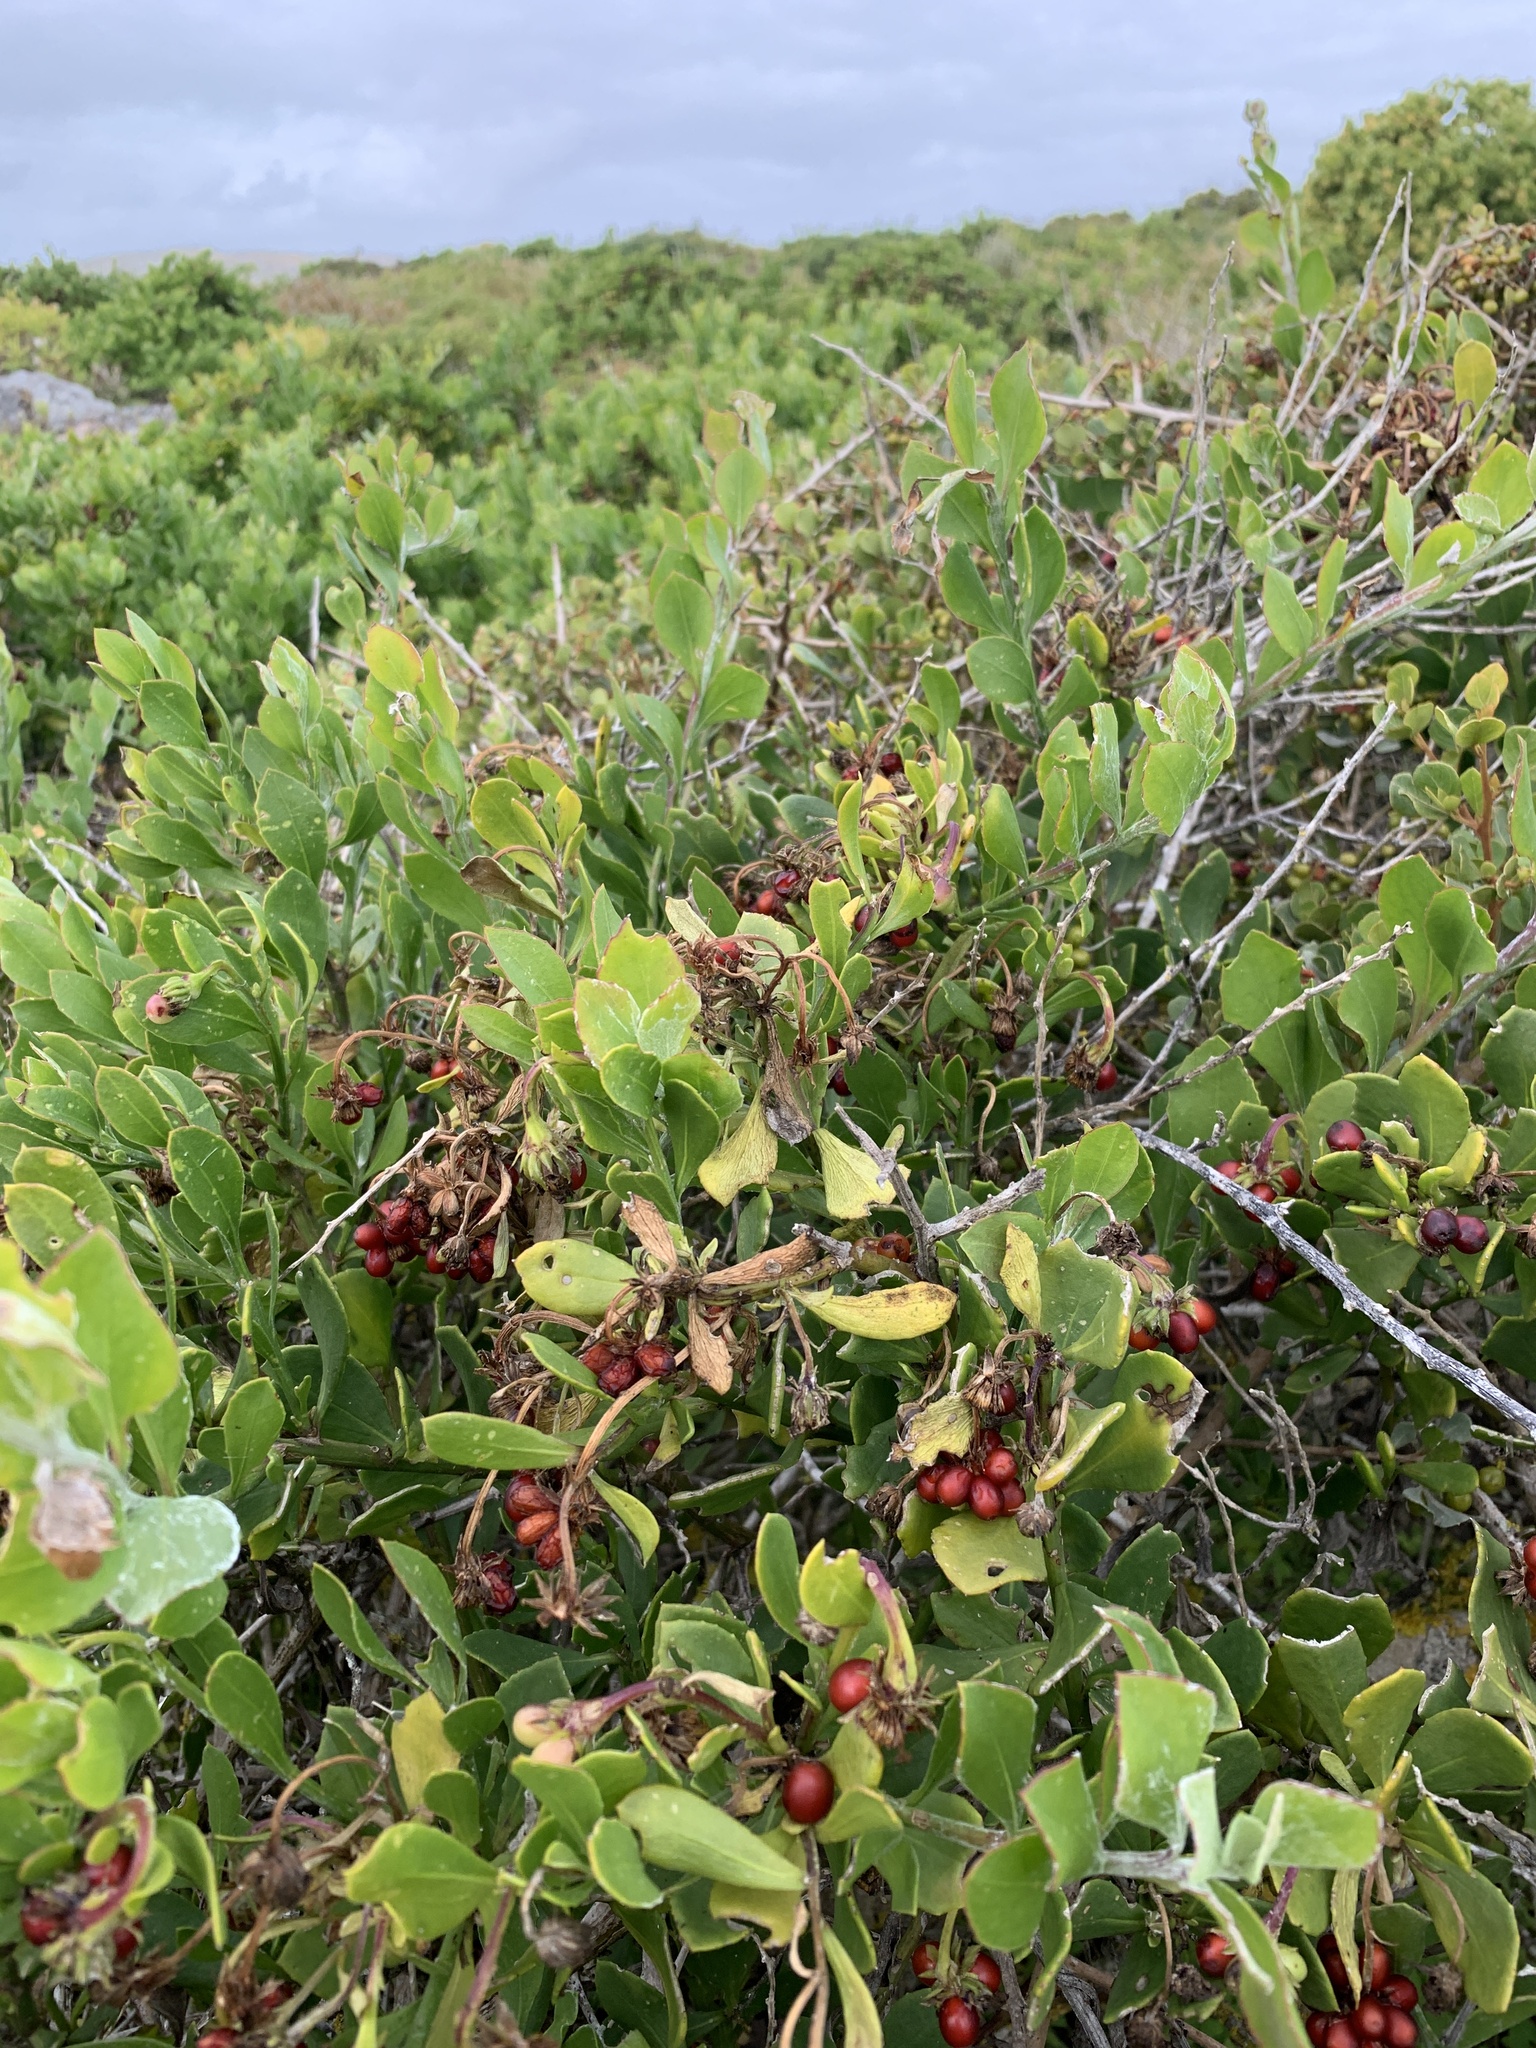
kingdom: Plantae
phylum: Tracheophyta
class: Magnoliopsida
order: Asterales
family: Asteraceae
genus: Osteospermum
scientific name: Osteospermum moniliferum
